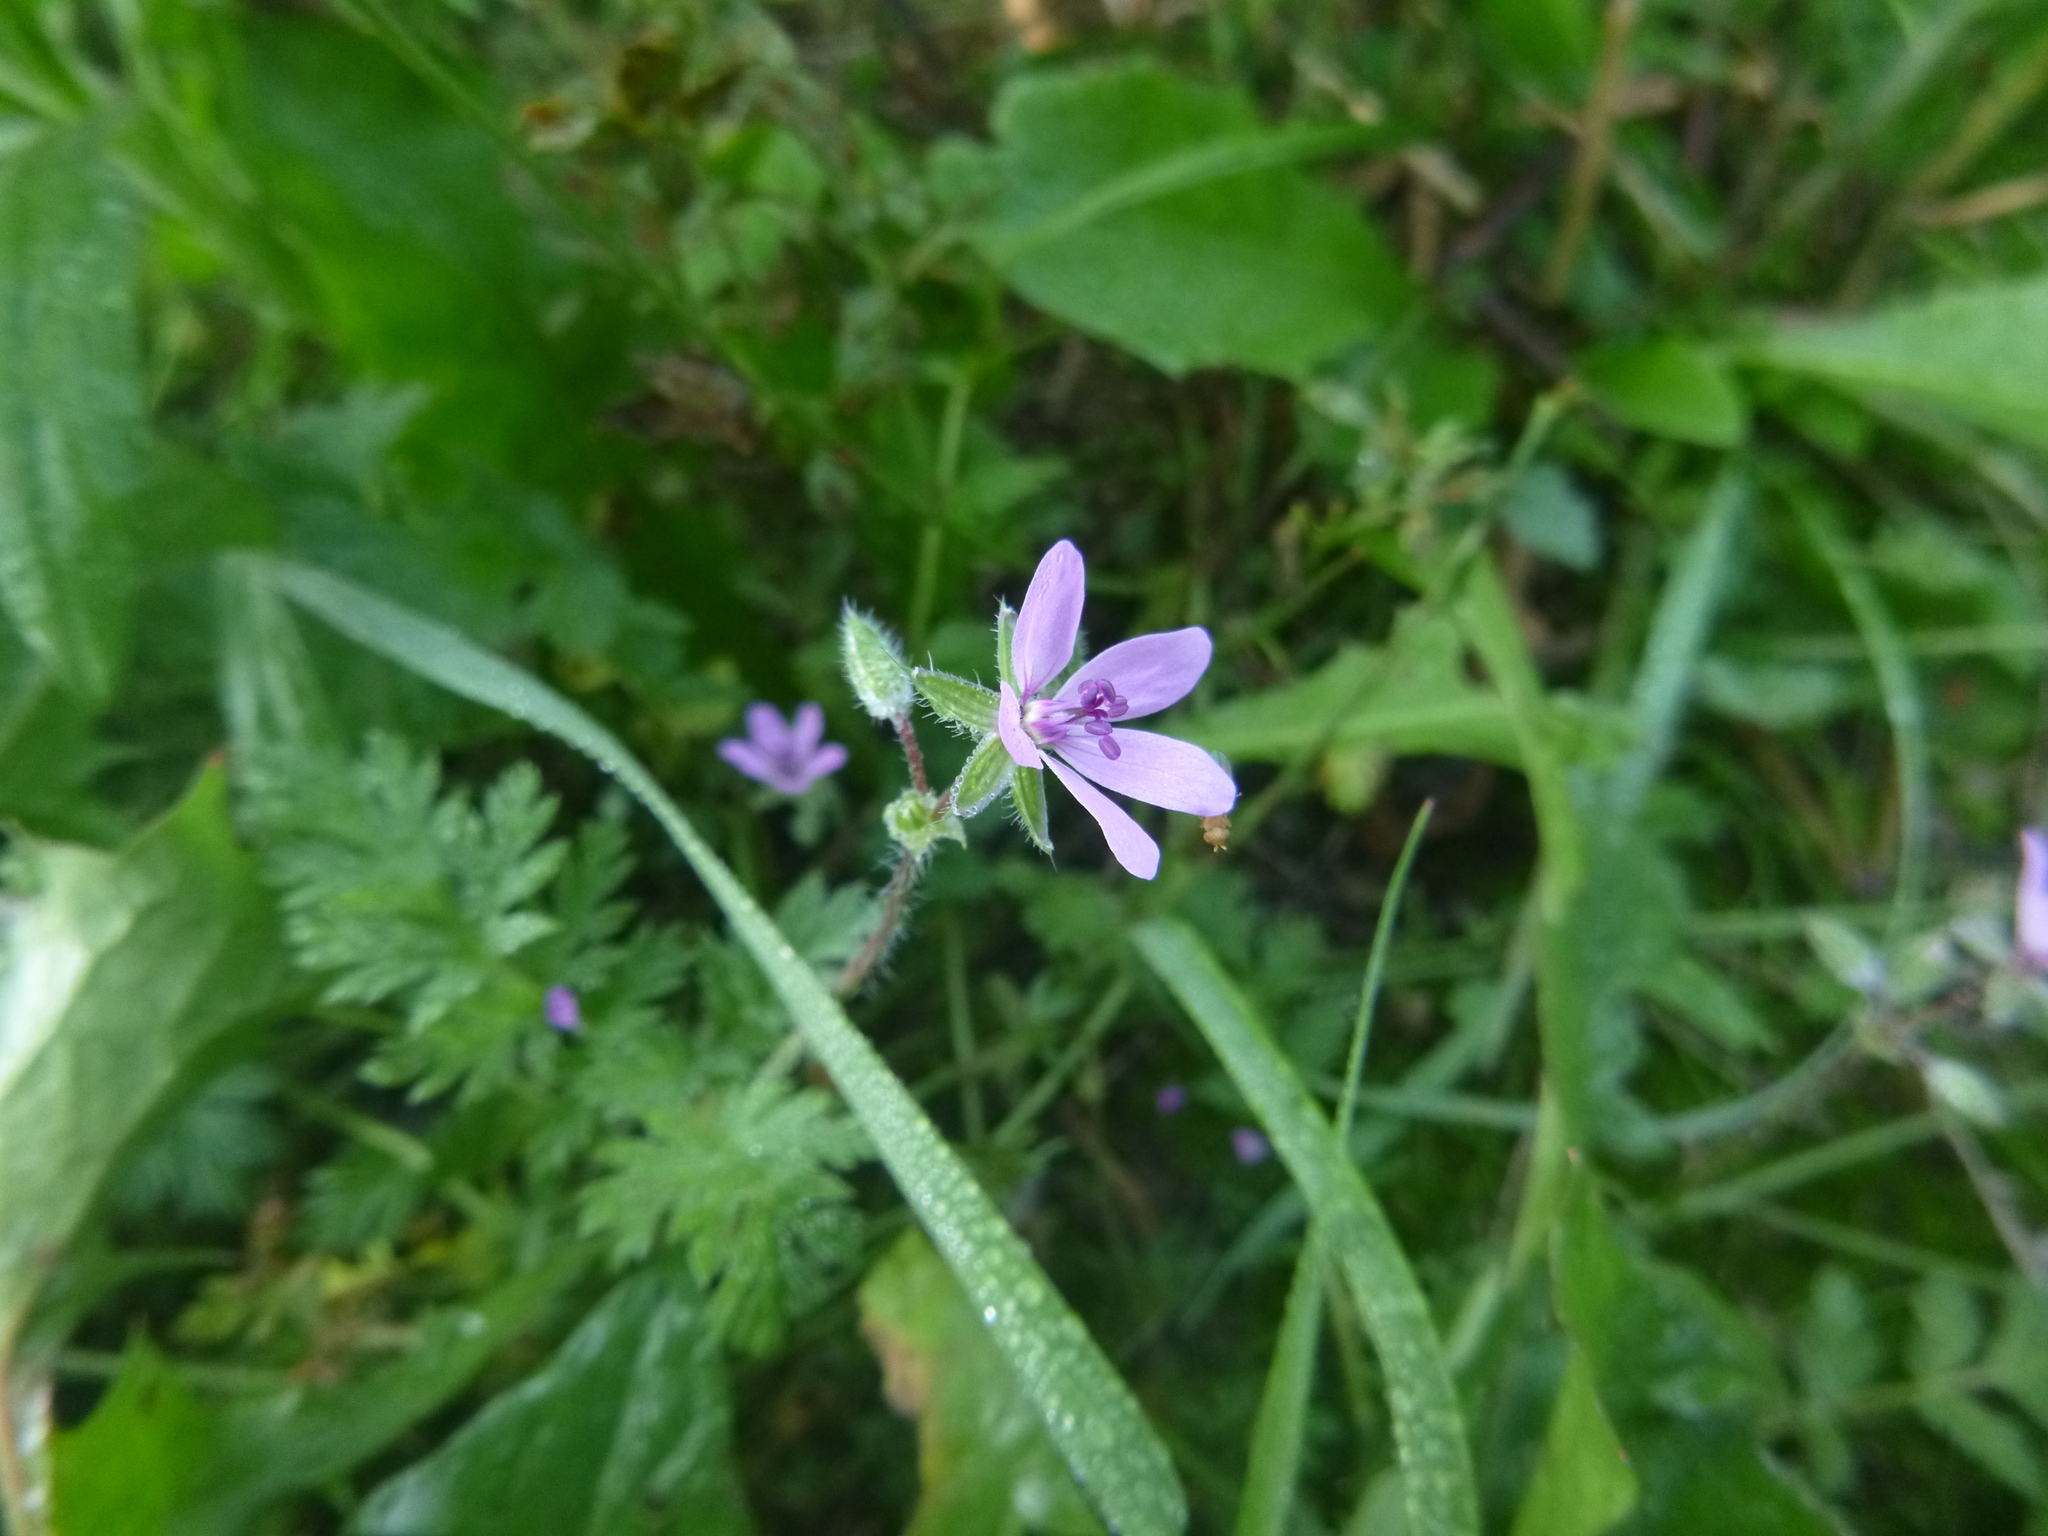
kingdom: Plantae
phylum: Tracheophyta
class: Magnoliopsida
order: Geraniales
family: Geraniaceae
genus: Erodium
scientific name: Erodium cicutarium
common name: Common stork's-bill
